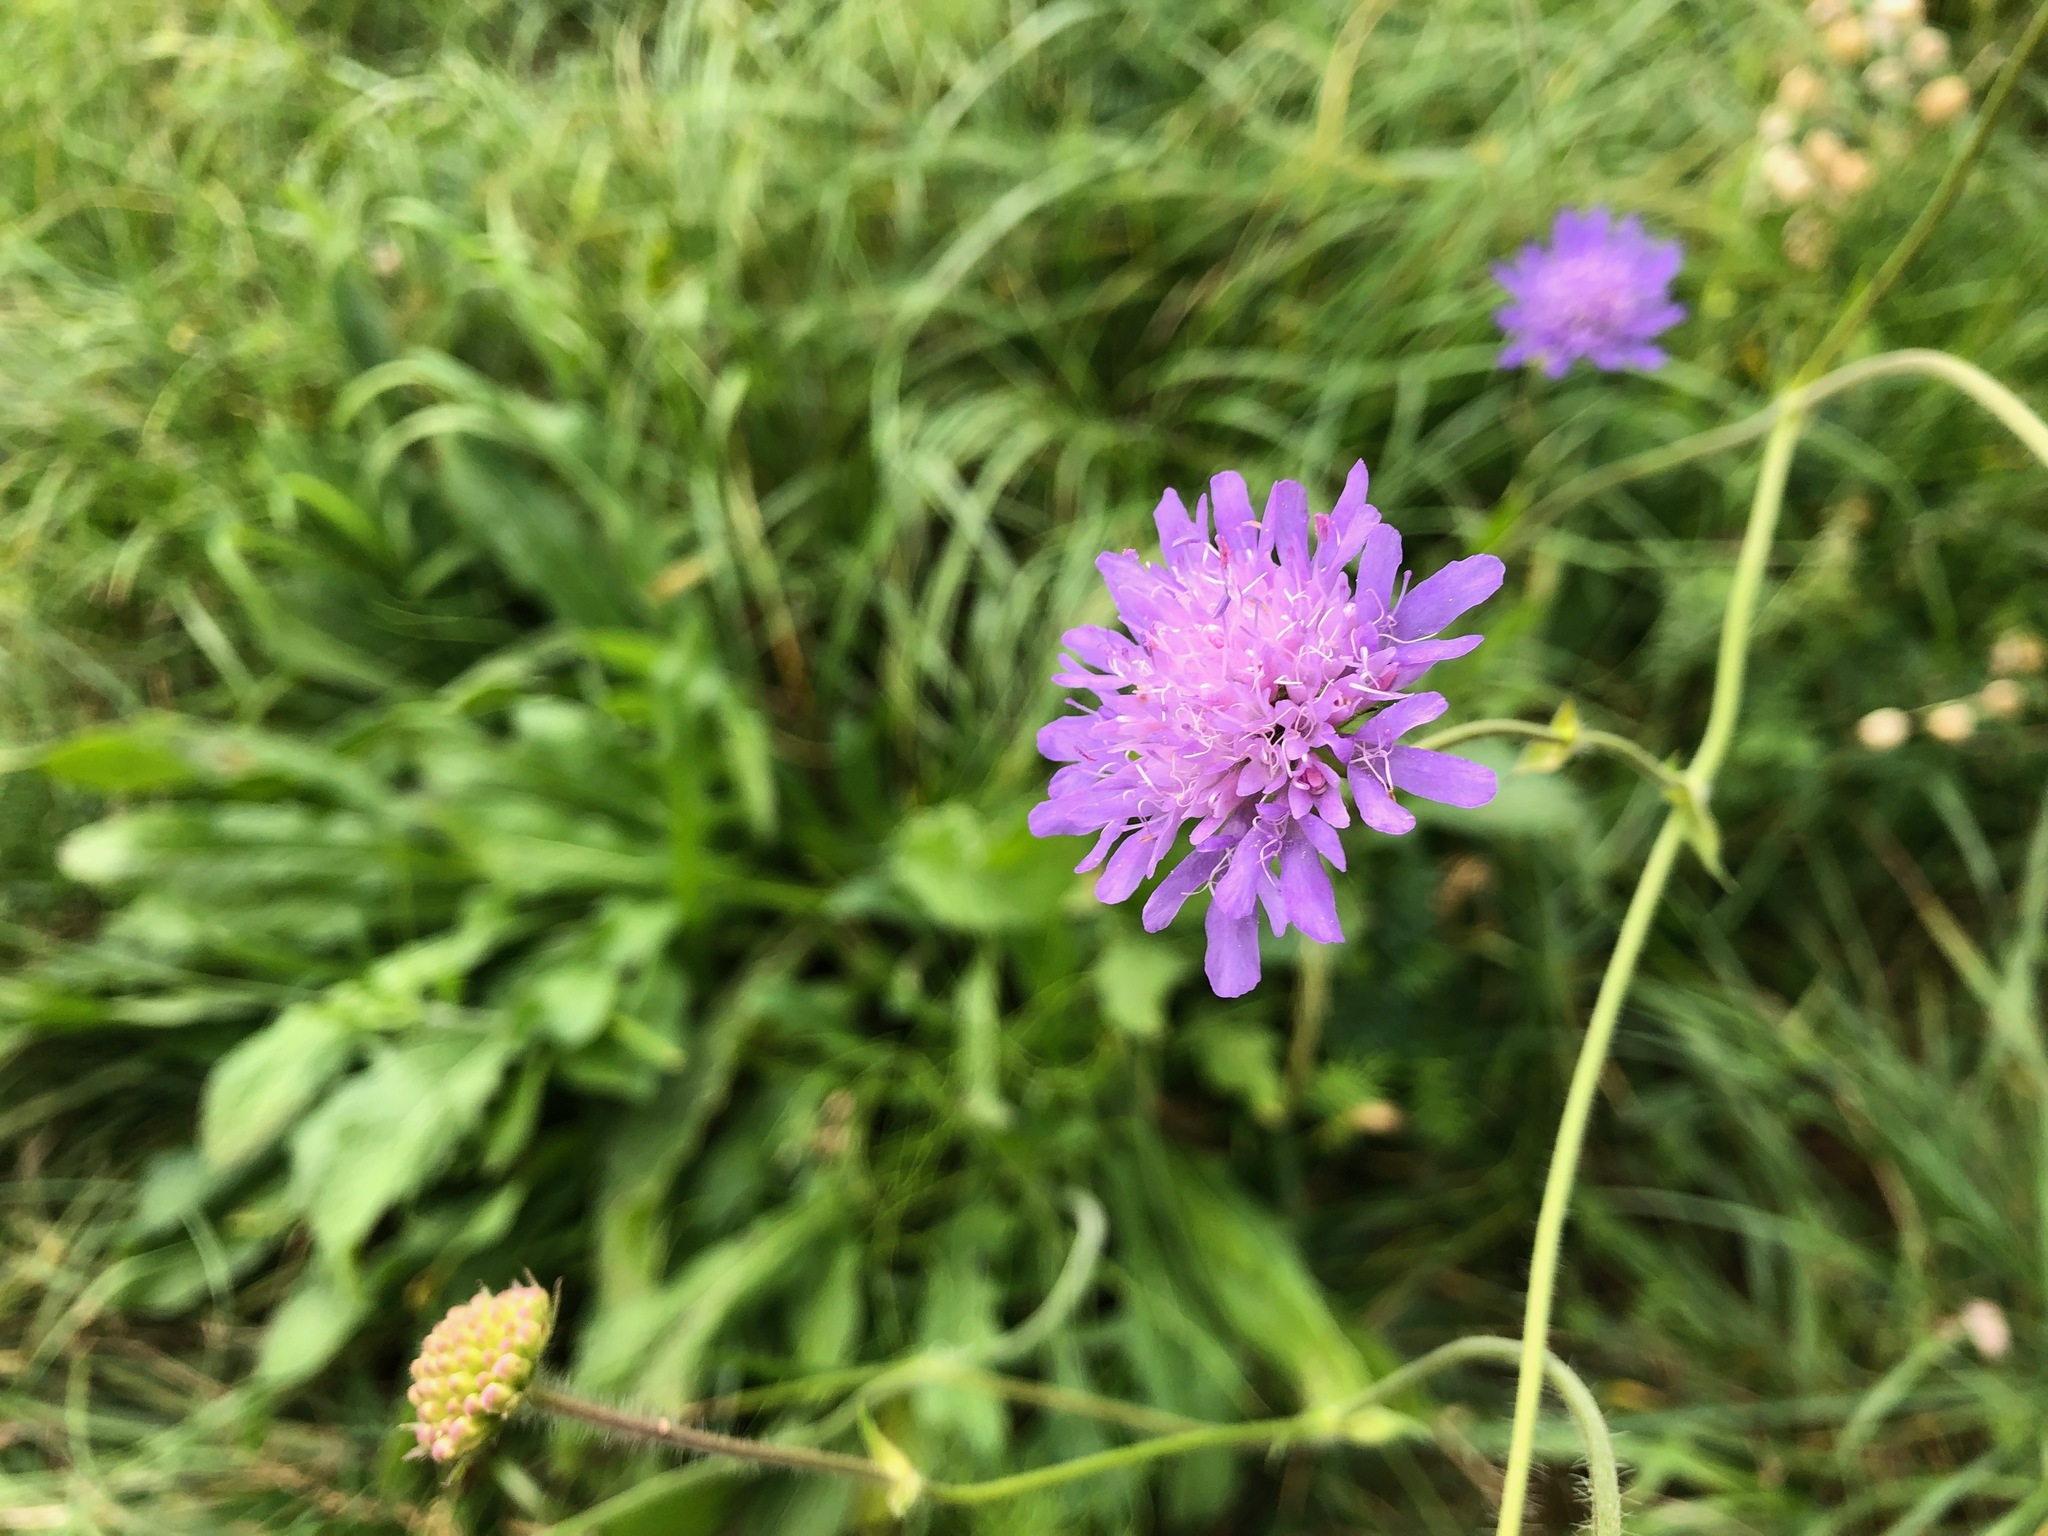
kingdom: Plantae
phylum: Tracheophyta
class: Magnoliopsida
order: Dipsacales
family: Caprifoliaceae
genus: Knautia
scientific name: Knautia arvensis
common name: Field scabiosa
